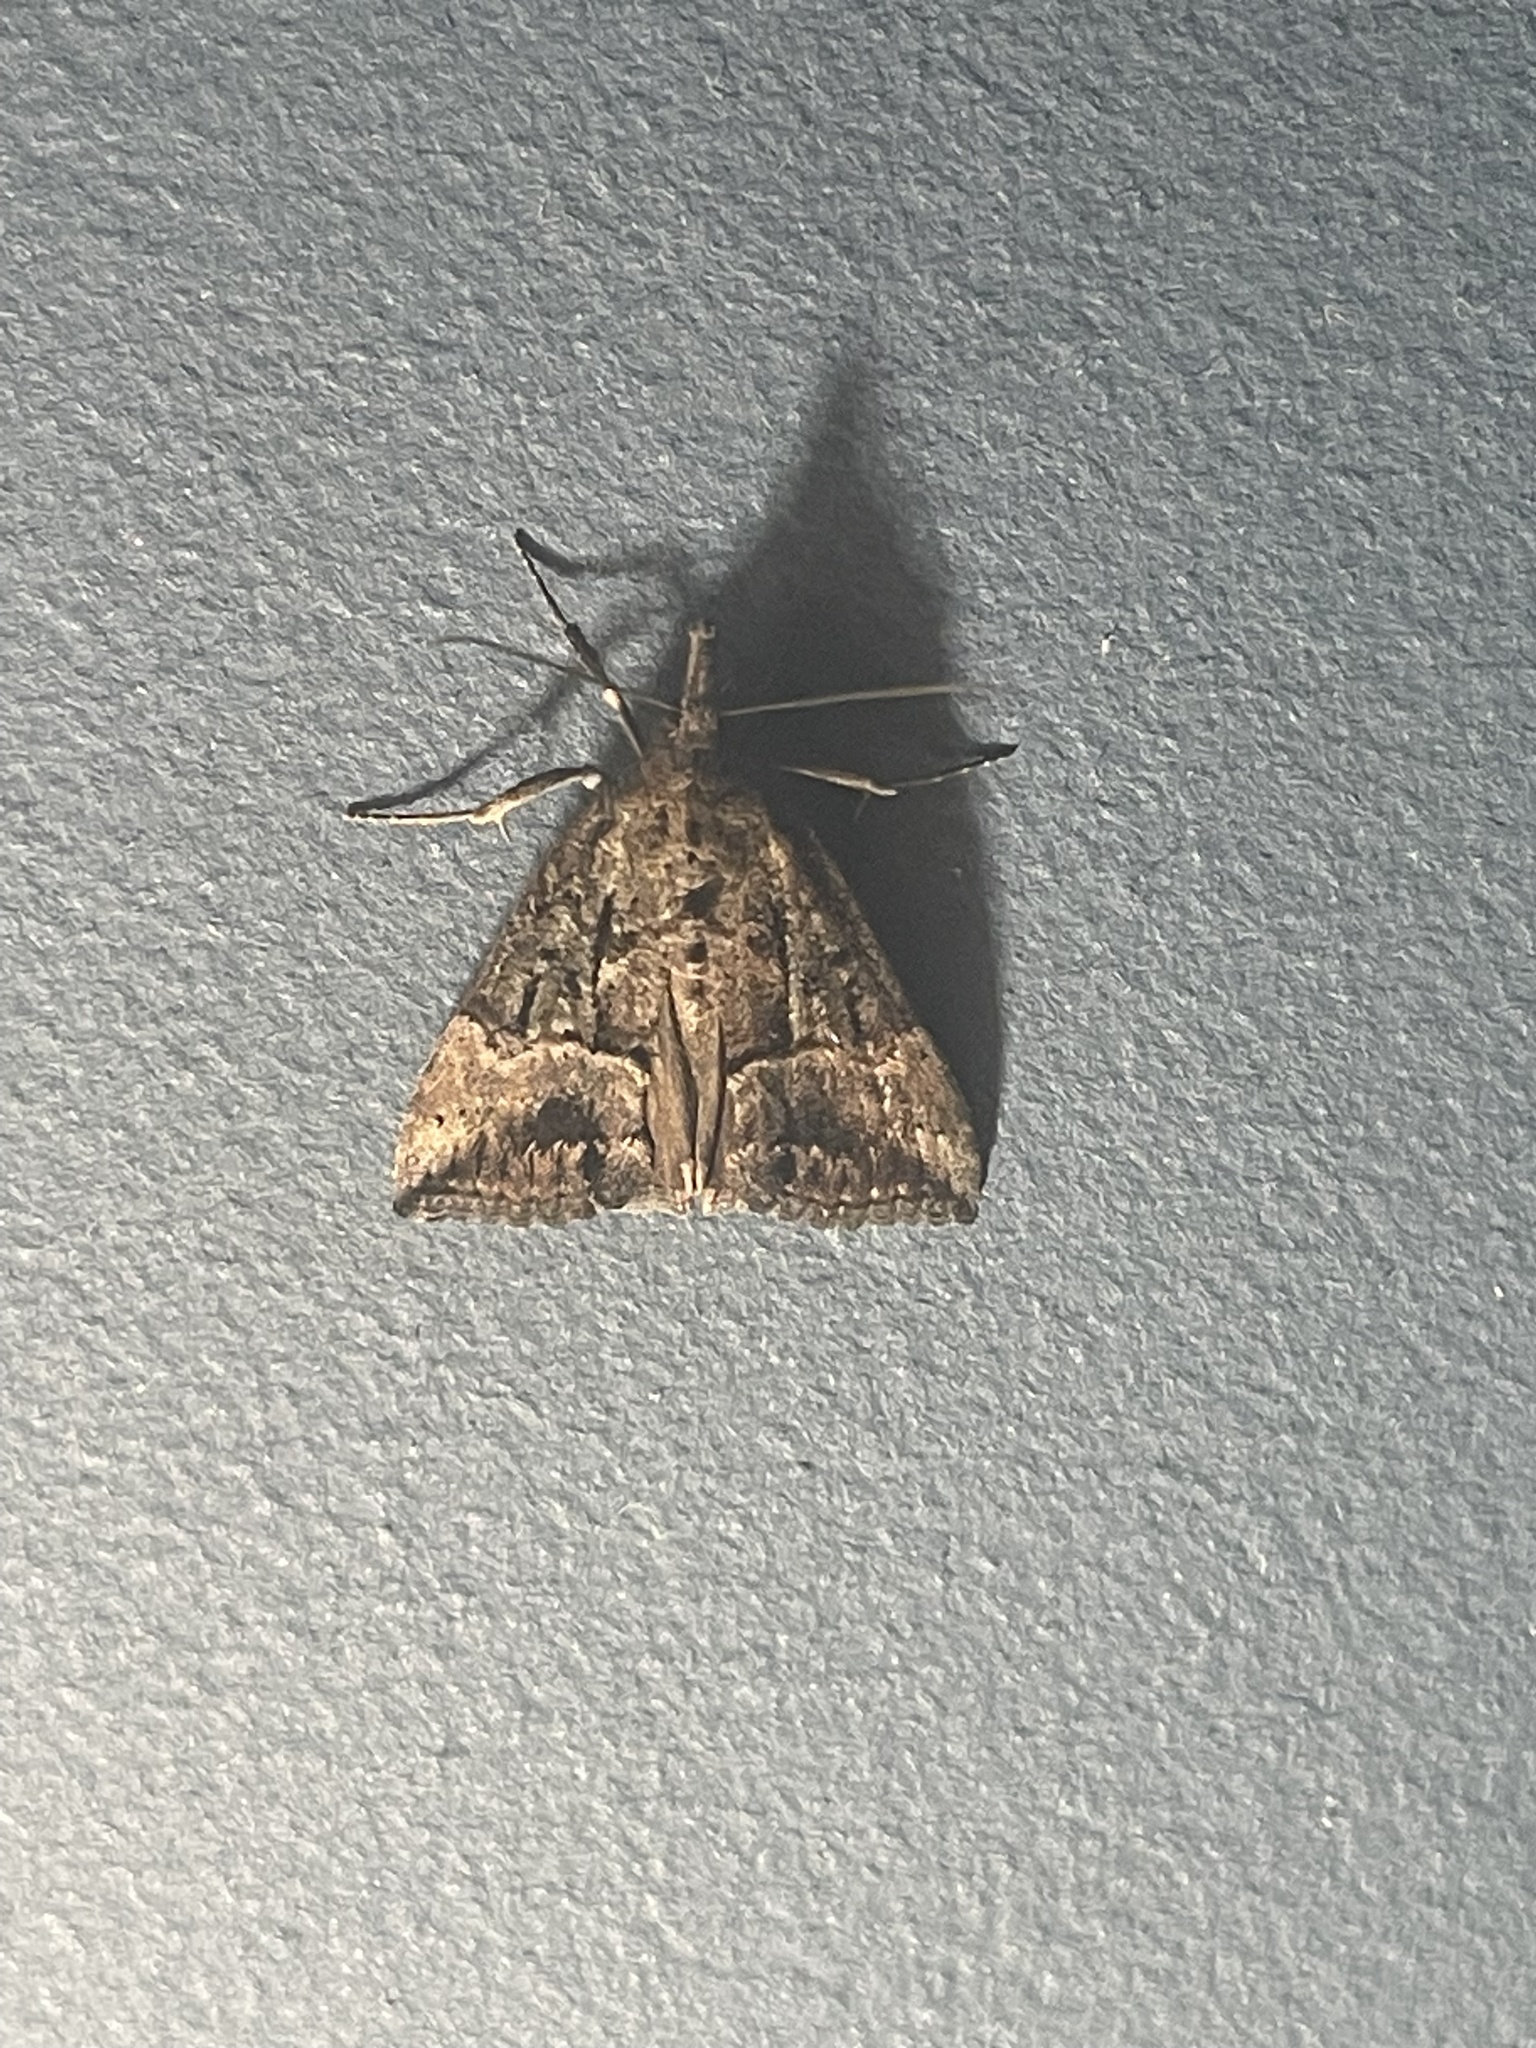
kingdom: Animalia
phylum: Arthropoda
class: Insecta
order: Lepidoptera
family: Erebidae
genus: Hypena
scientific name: Hypena scabra
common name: Green cloverworm
